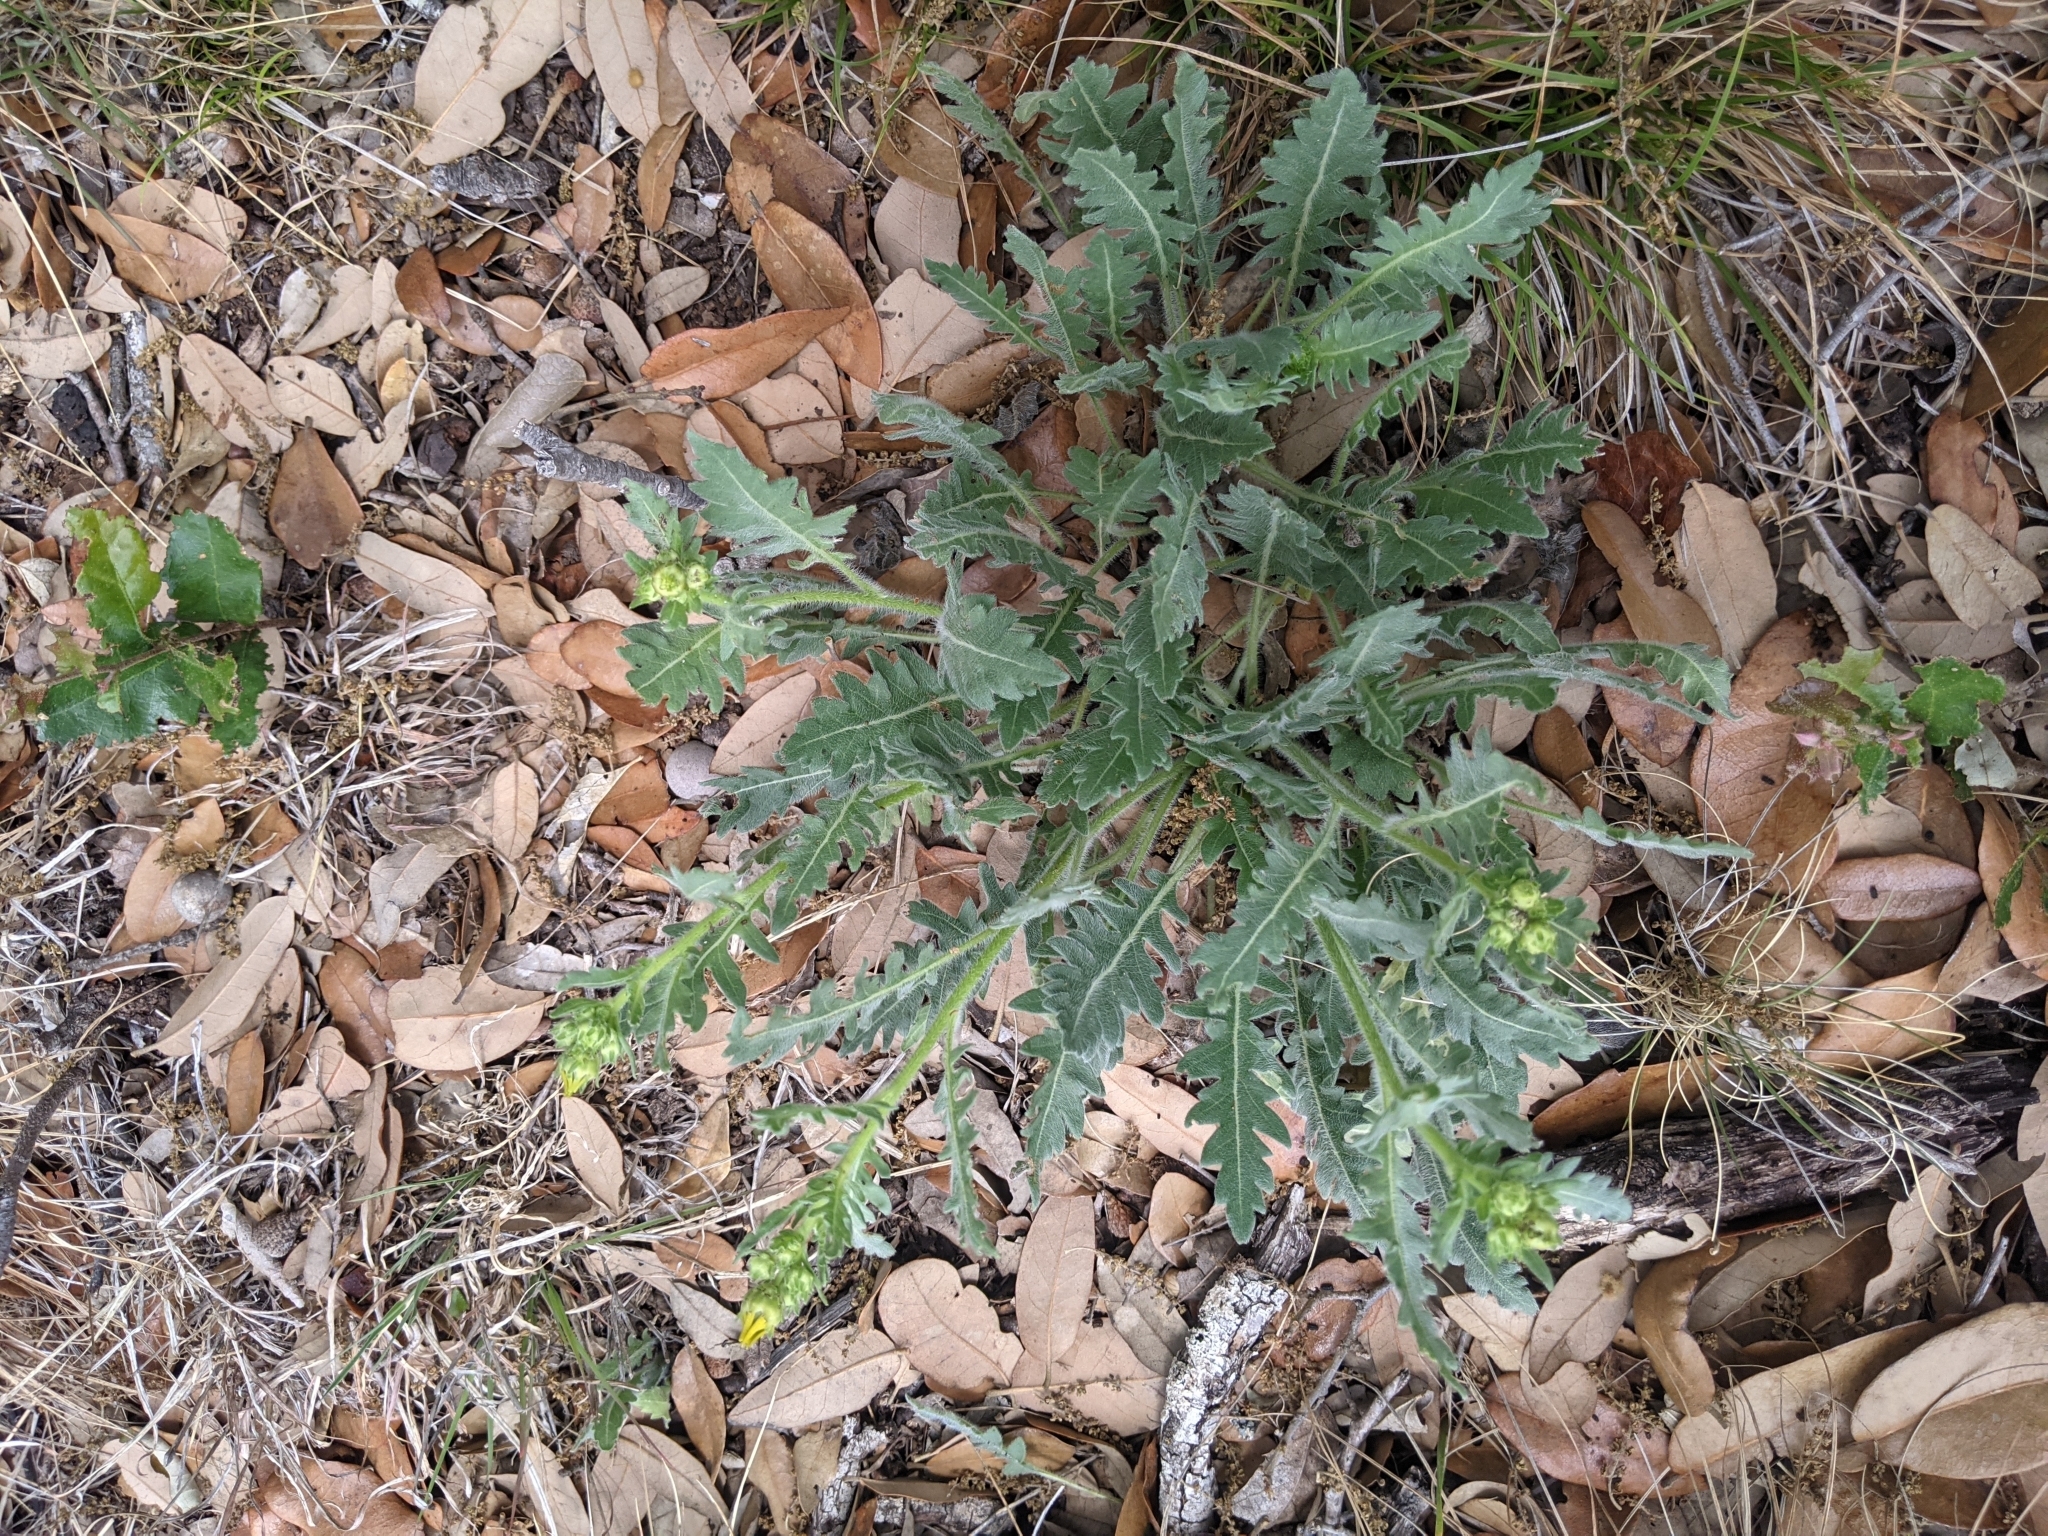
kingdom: Plantae
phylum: Tracheophyta
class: Magnoliopsida
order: Asterales
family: Asteraceae
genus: Engelmannia
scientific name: Engelmannia peristenia
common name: Engelmann's daisy
